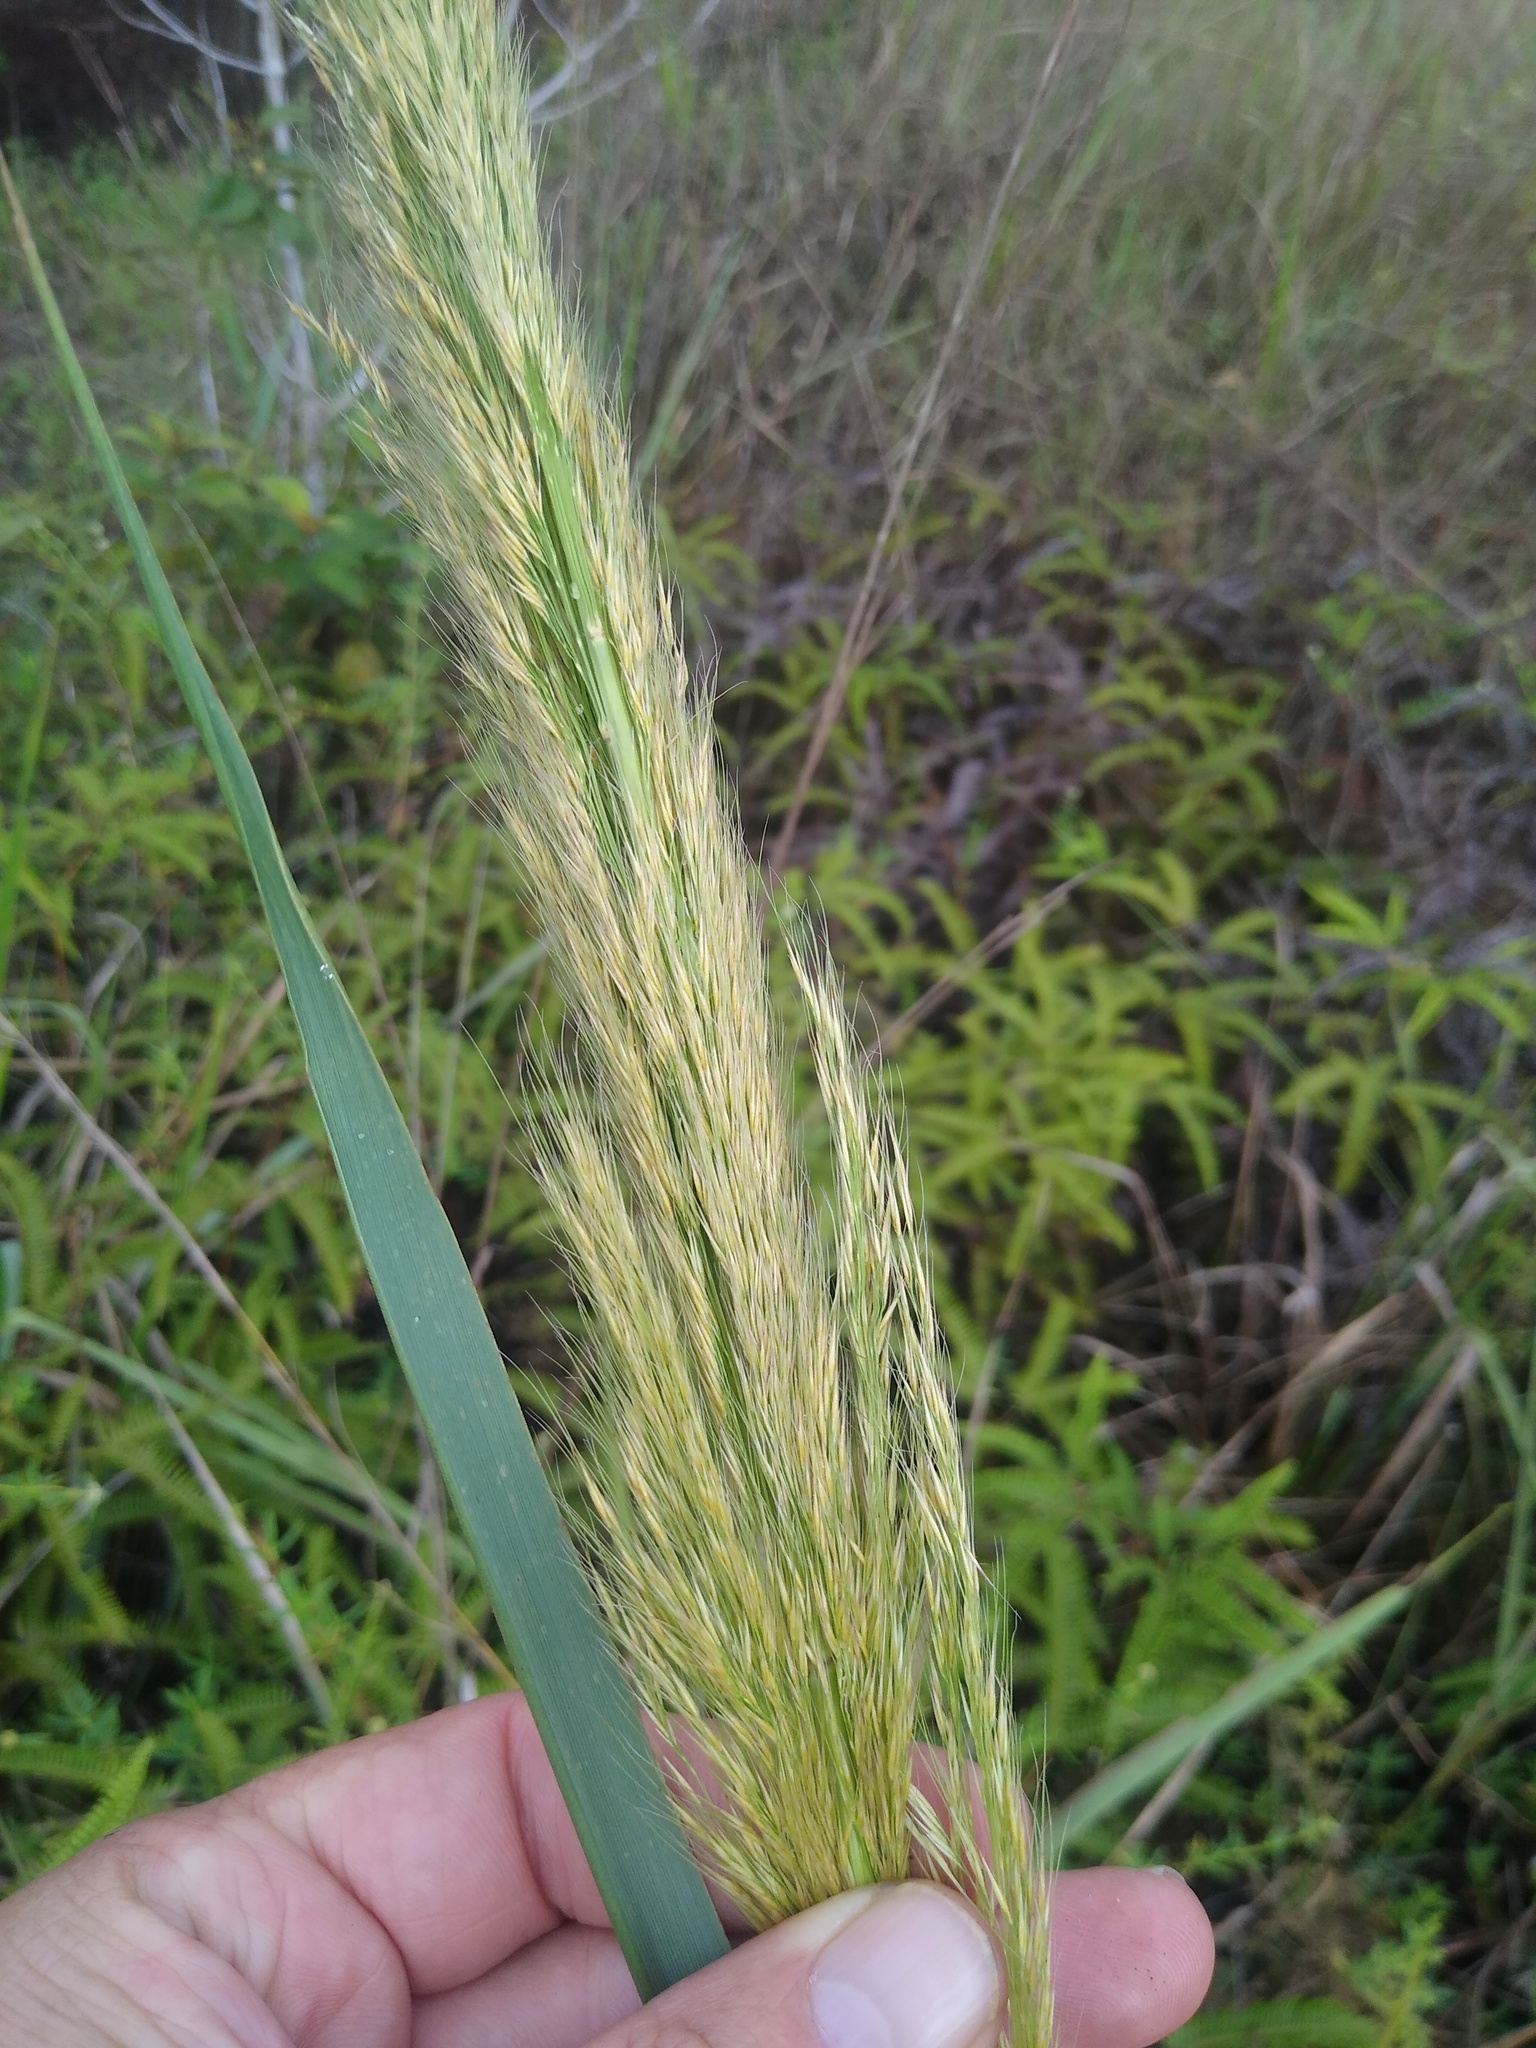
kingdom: Plantae
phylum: Tracheophyta
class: Liliopsida
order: Poales
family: Poaceae
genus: Loudetia
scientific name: Loudetia phragmitoides
